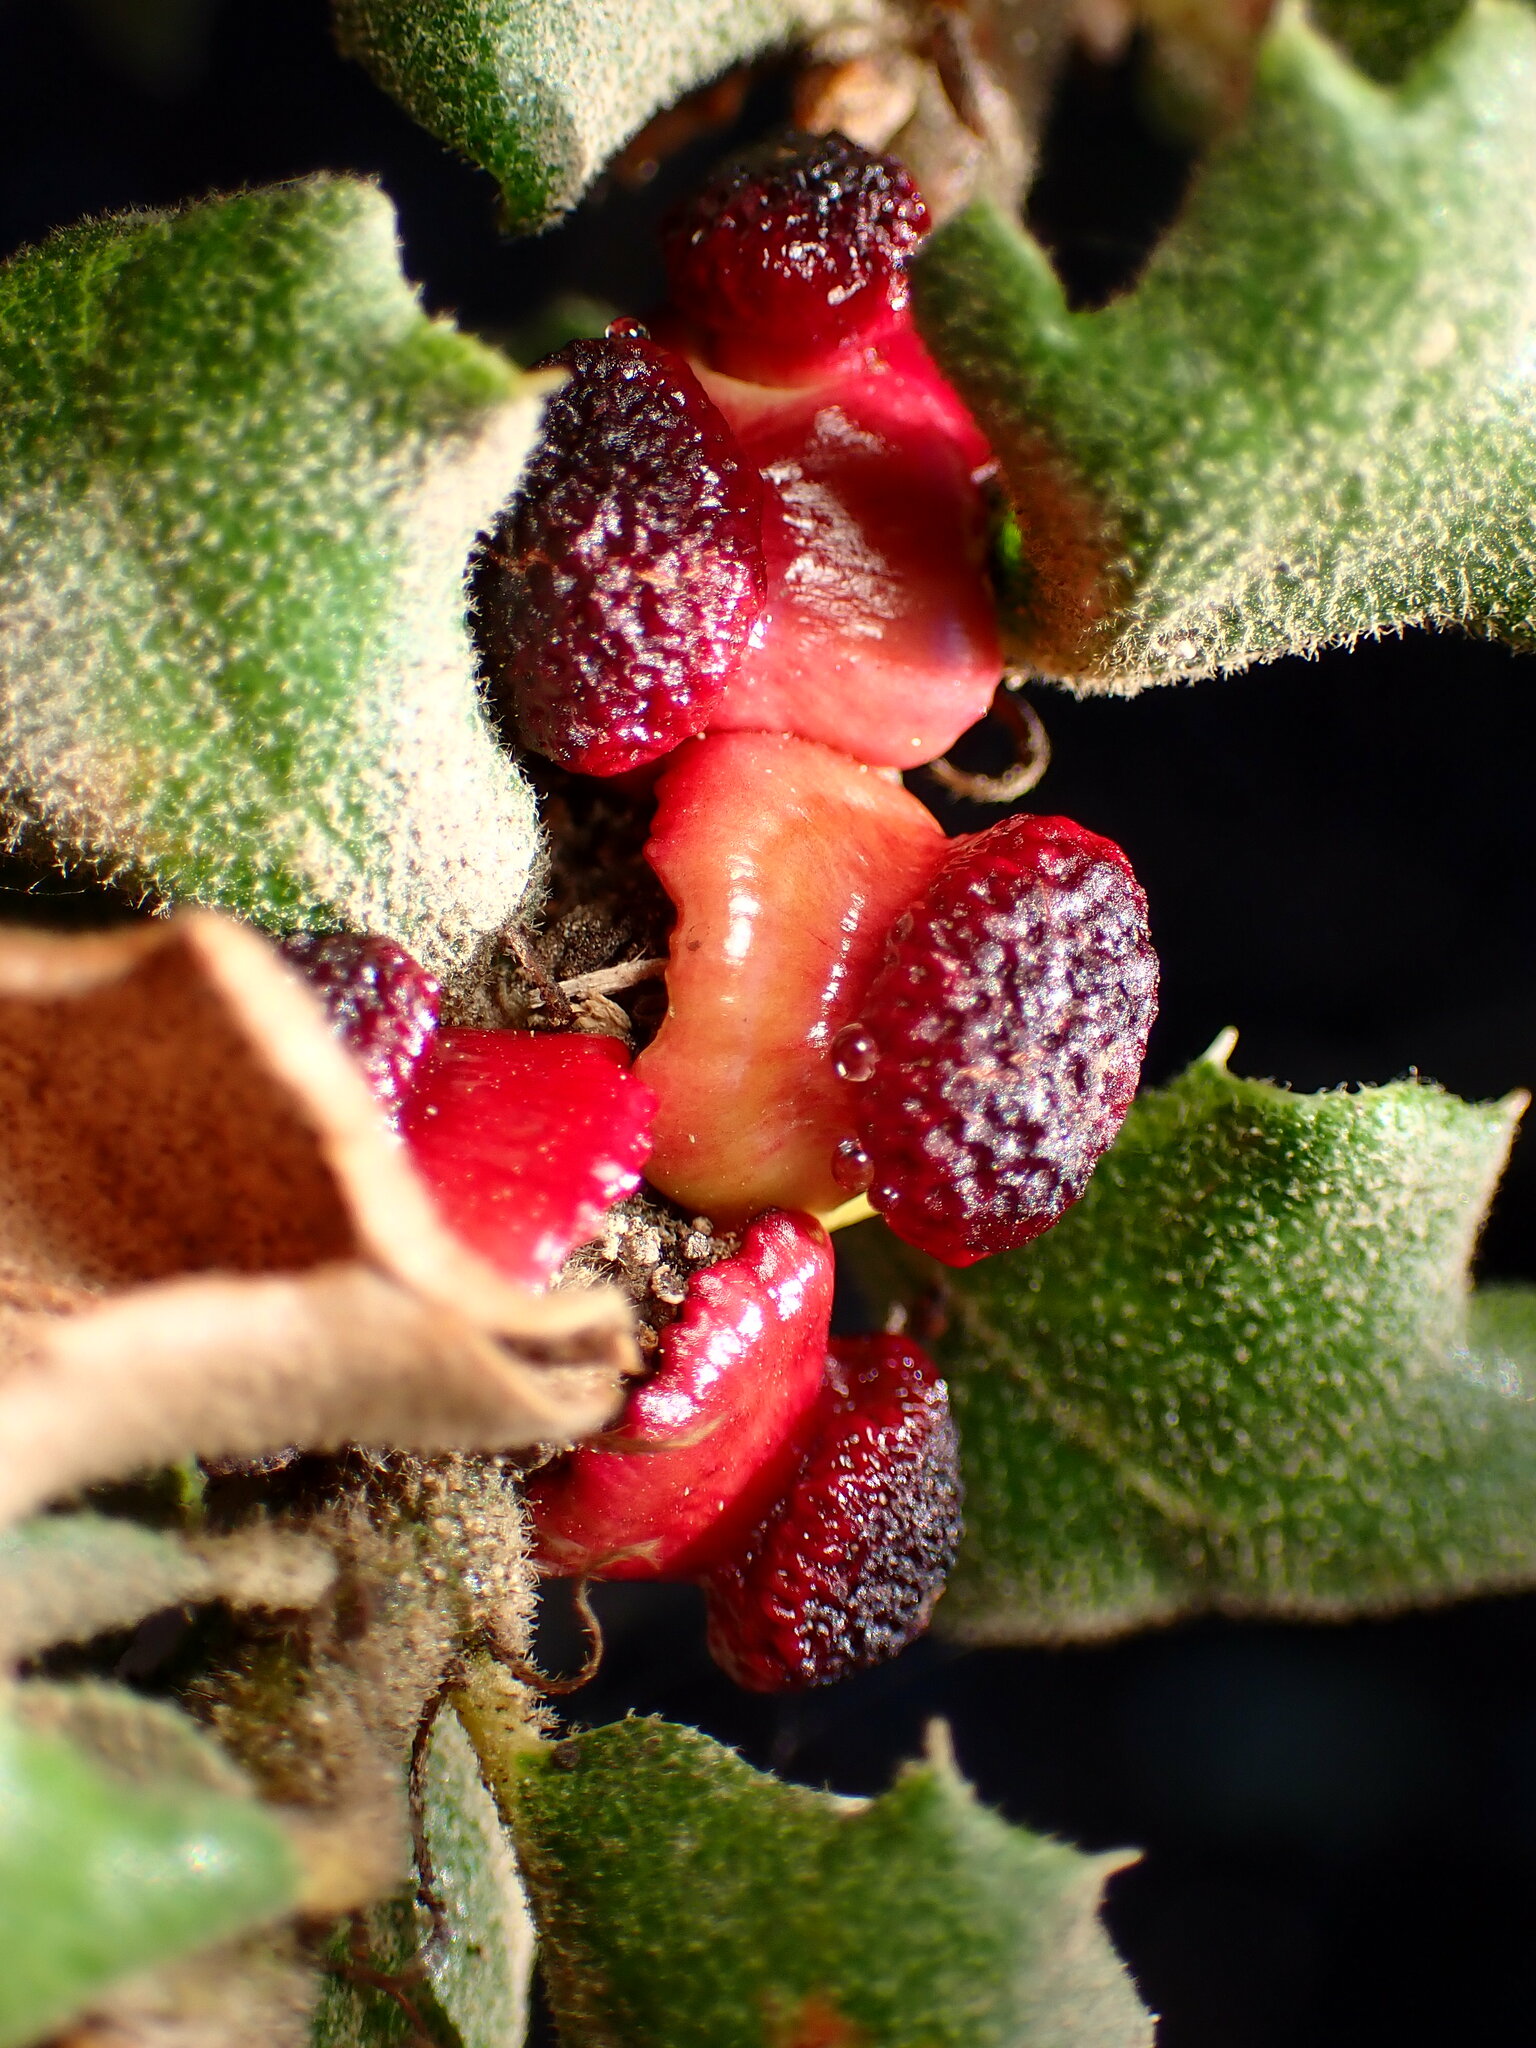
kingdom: Animalia
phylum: Arthropoda
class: Insecta
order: Hymenoptera
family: Cynipidae
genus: Disholcaspis
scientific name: Disholcaspis prehensa
